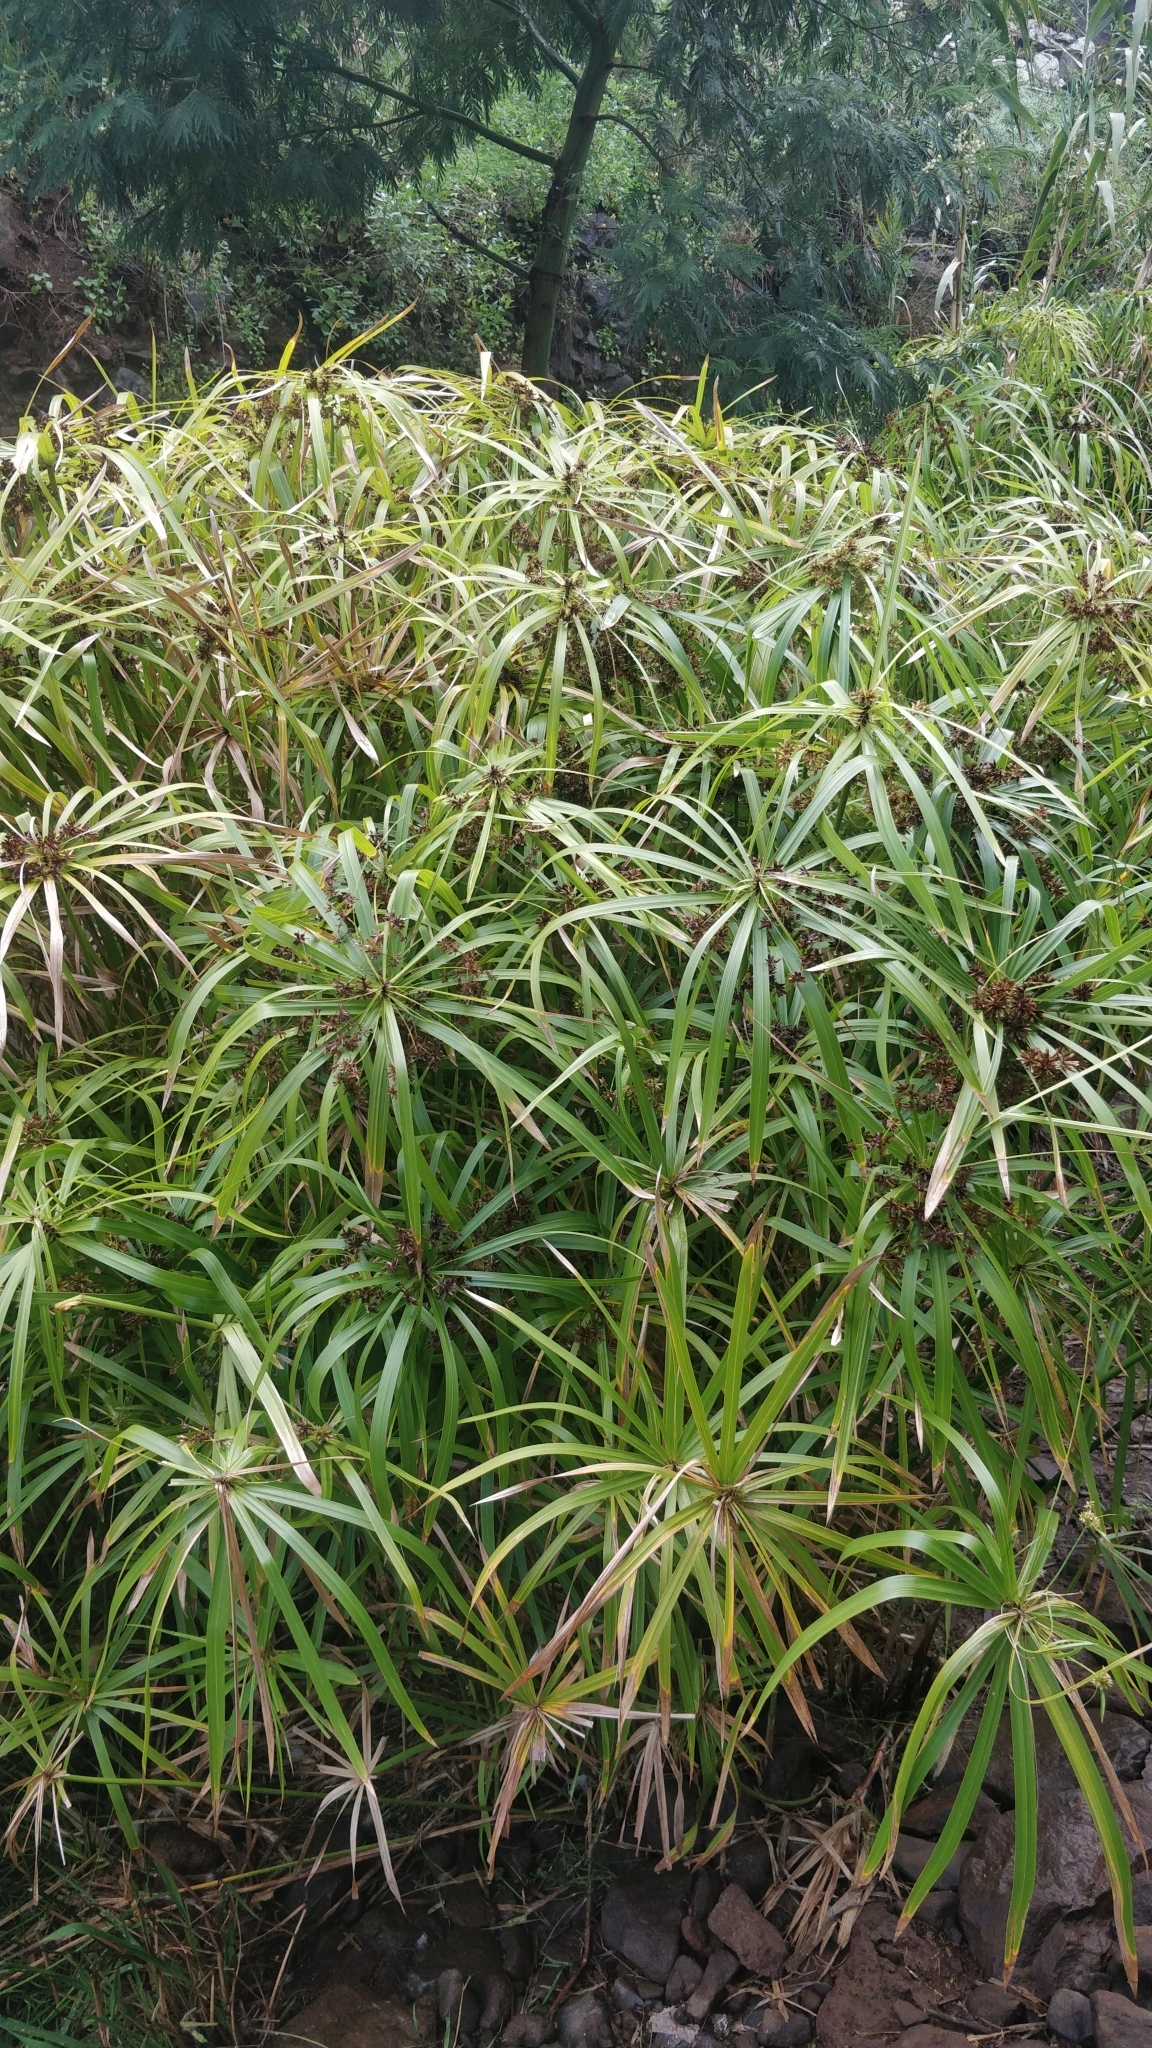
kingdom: Plantae
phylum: Tracheophyta
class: Liliopsida
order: Poales
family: Cyperaceae
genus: Cyperus
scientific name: Cyperus alternifolius
